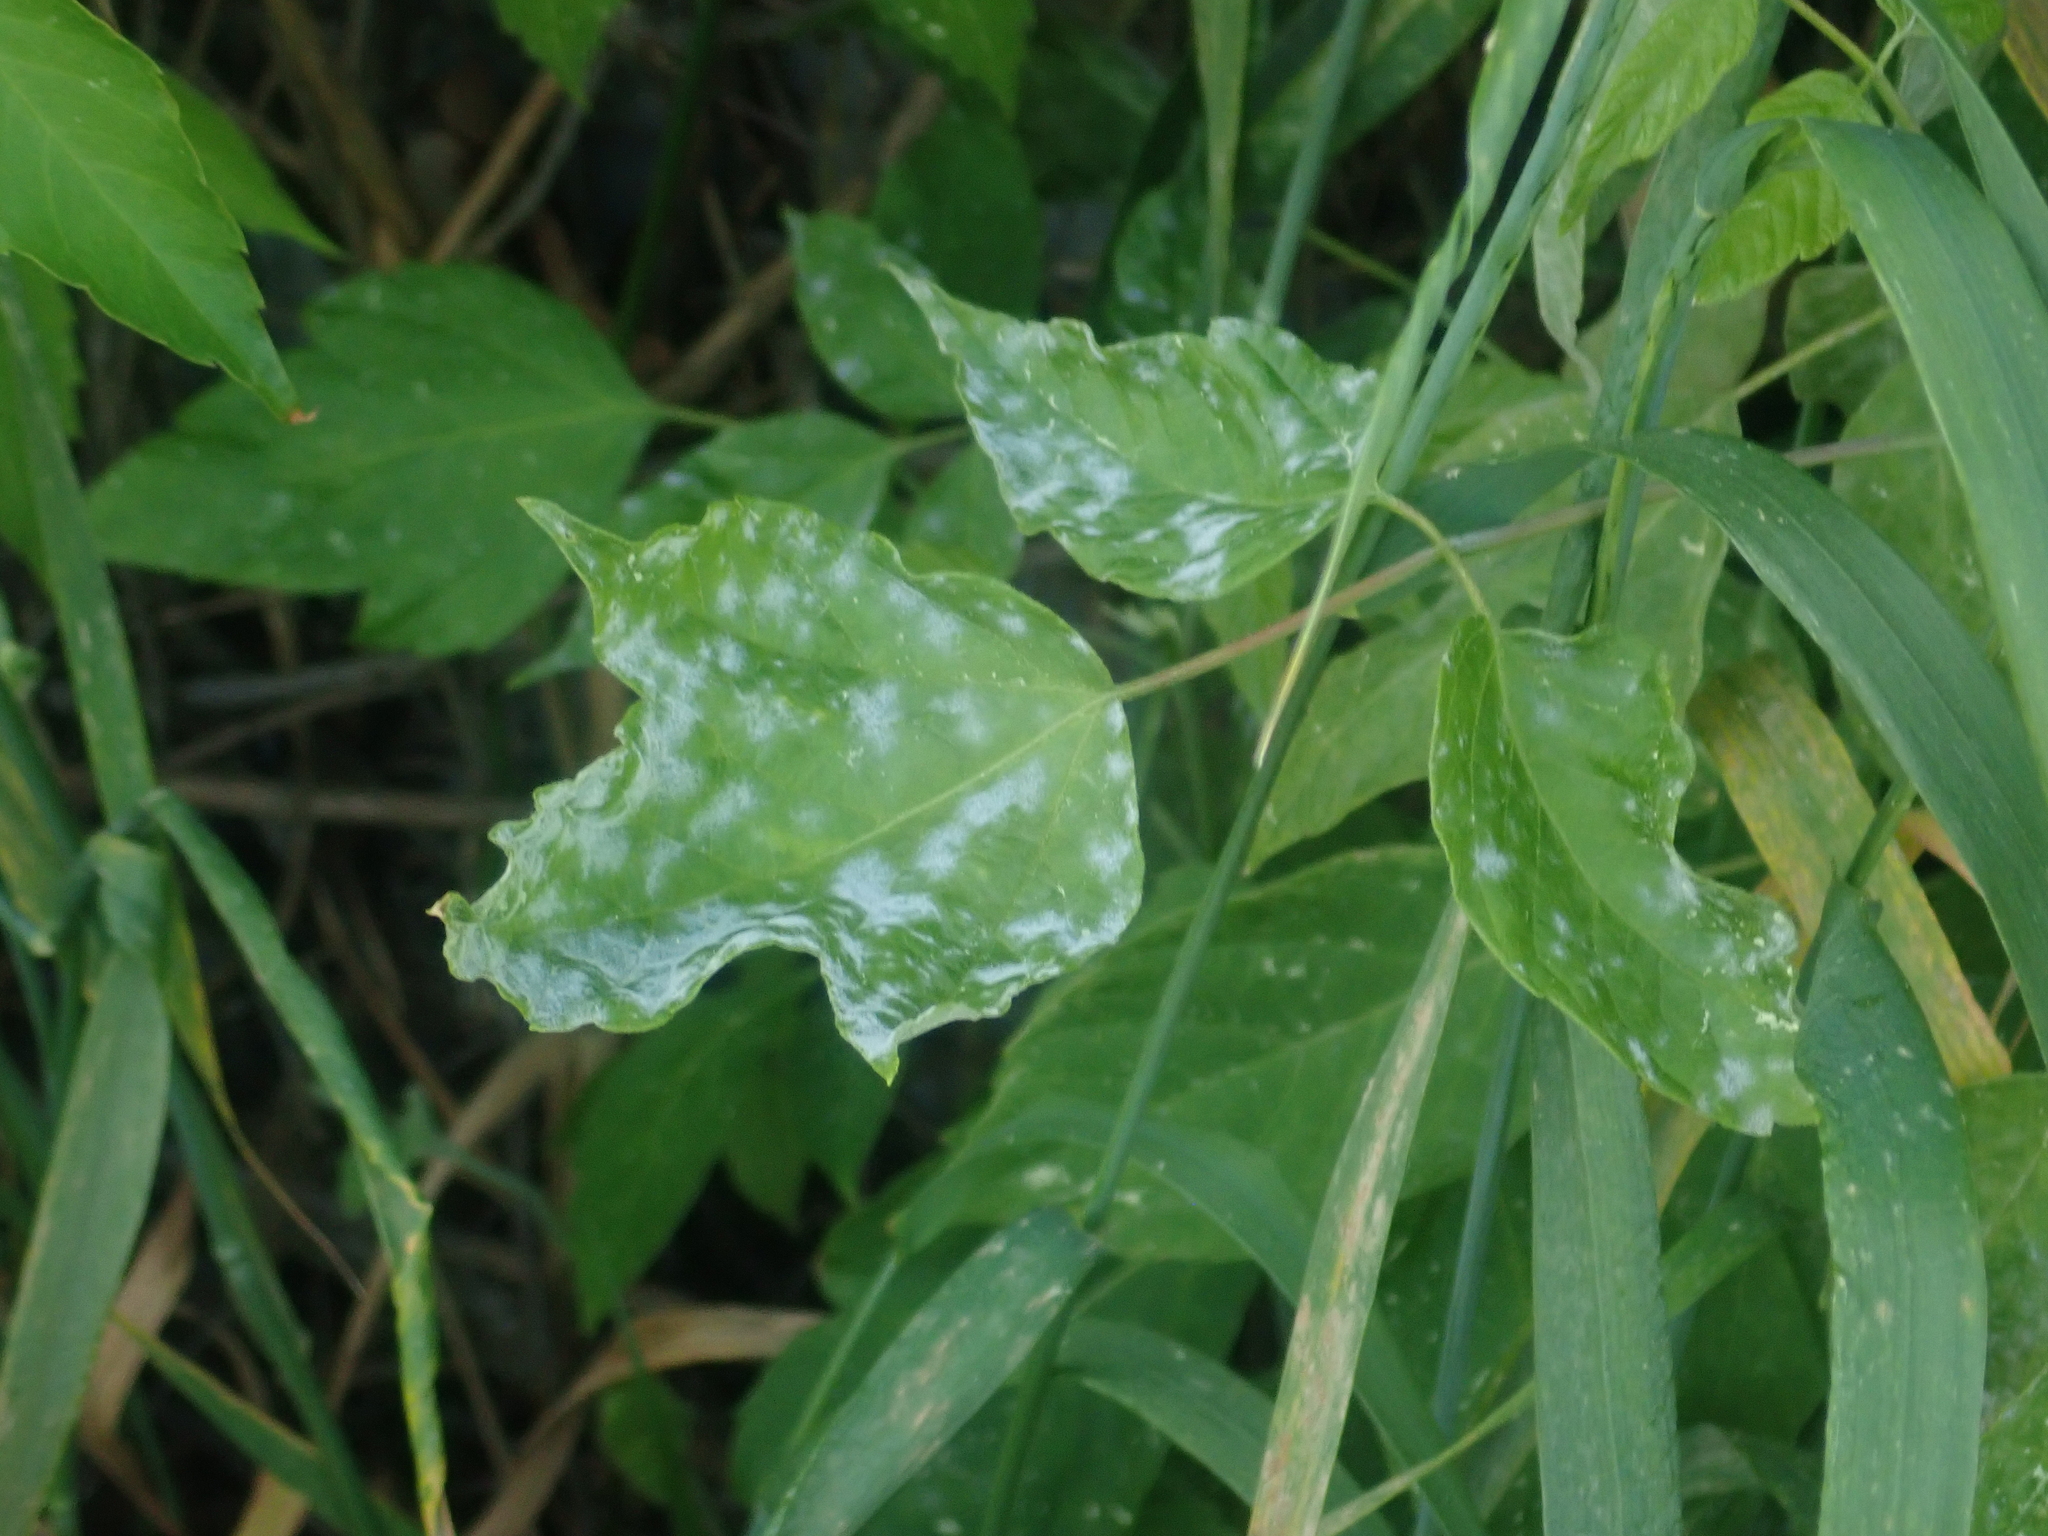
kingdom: Fungi
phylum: Ascomycota
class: Leotiomycetes
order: Helotiales
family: Erysiphaceae
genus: Sawadaea
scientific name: Sawadaea bicornis
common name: Maple mildew
